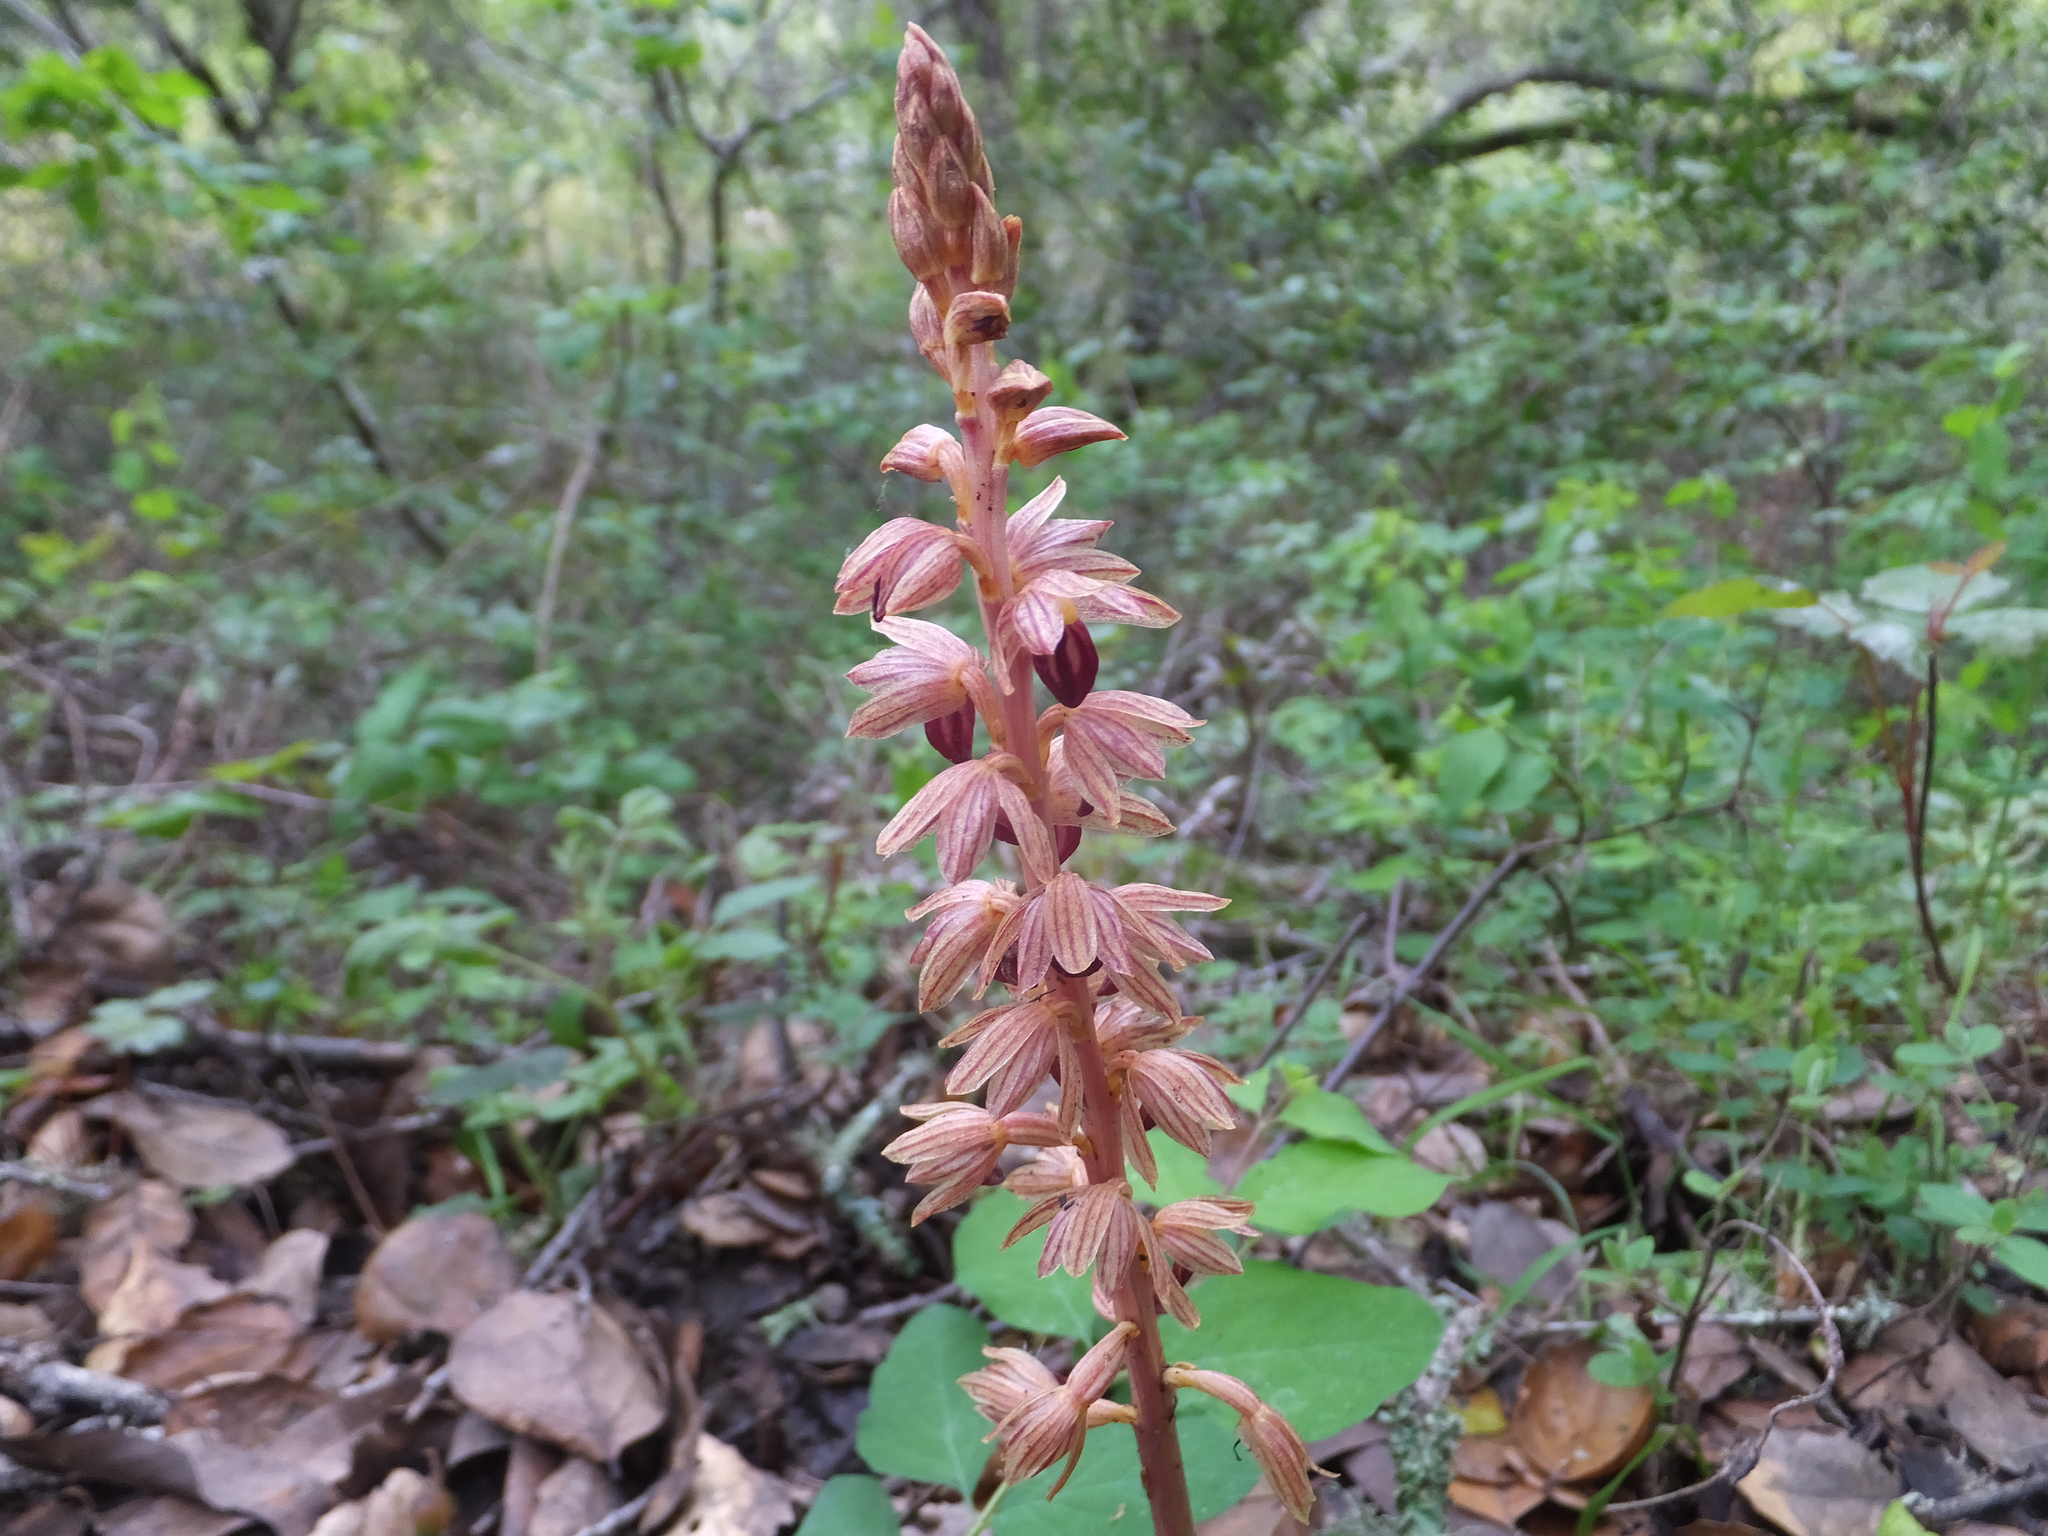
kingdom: Plantae
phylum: Tracheophyta
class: Liliopsida
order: Asparagales
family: Orchidaceae
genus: Corallorhiza
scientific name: Corallorhiza striata
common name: Hooded coralroot
